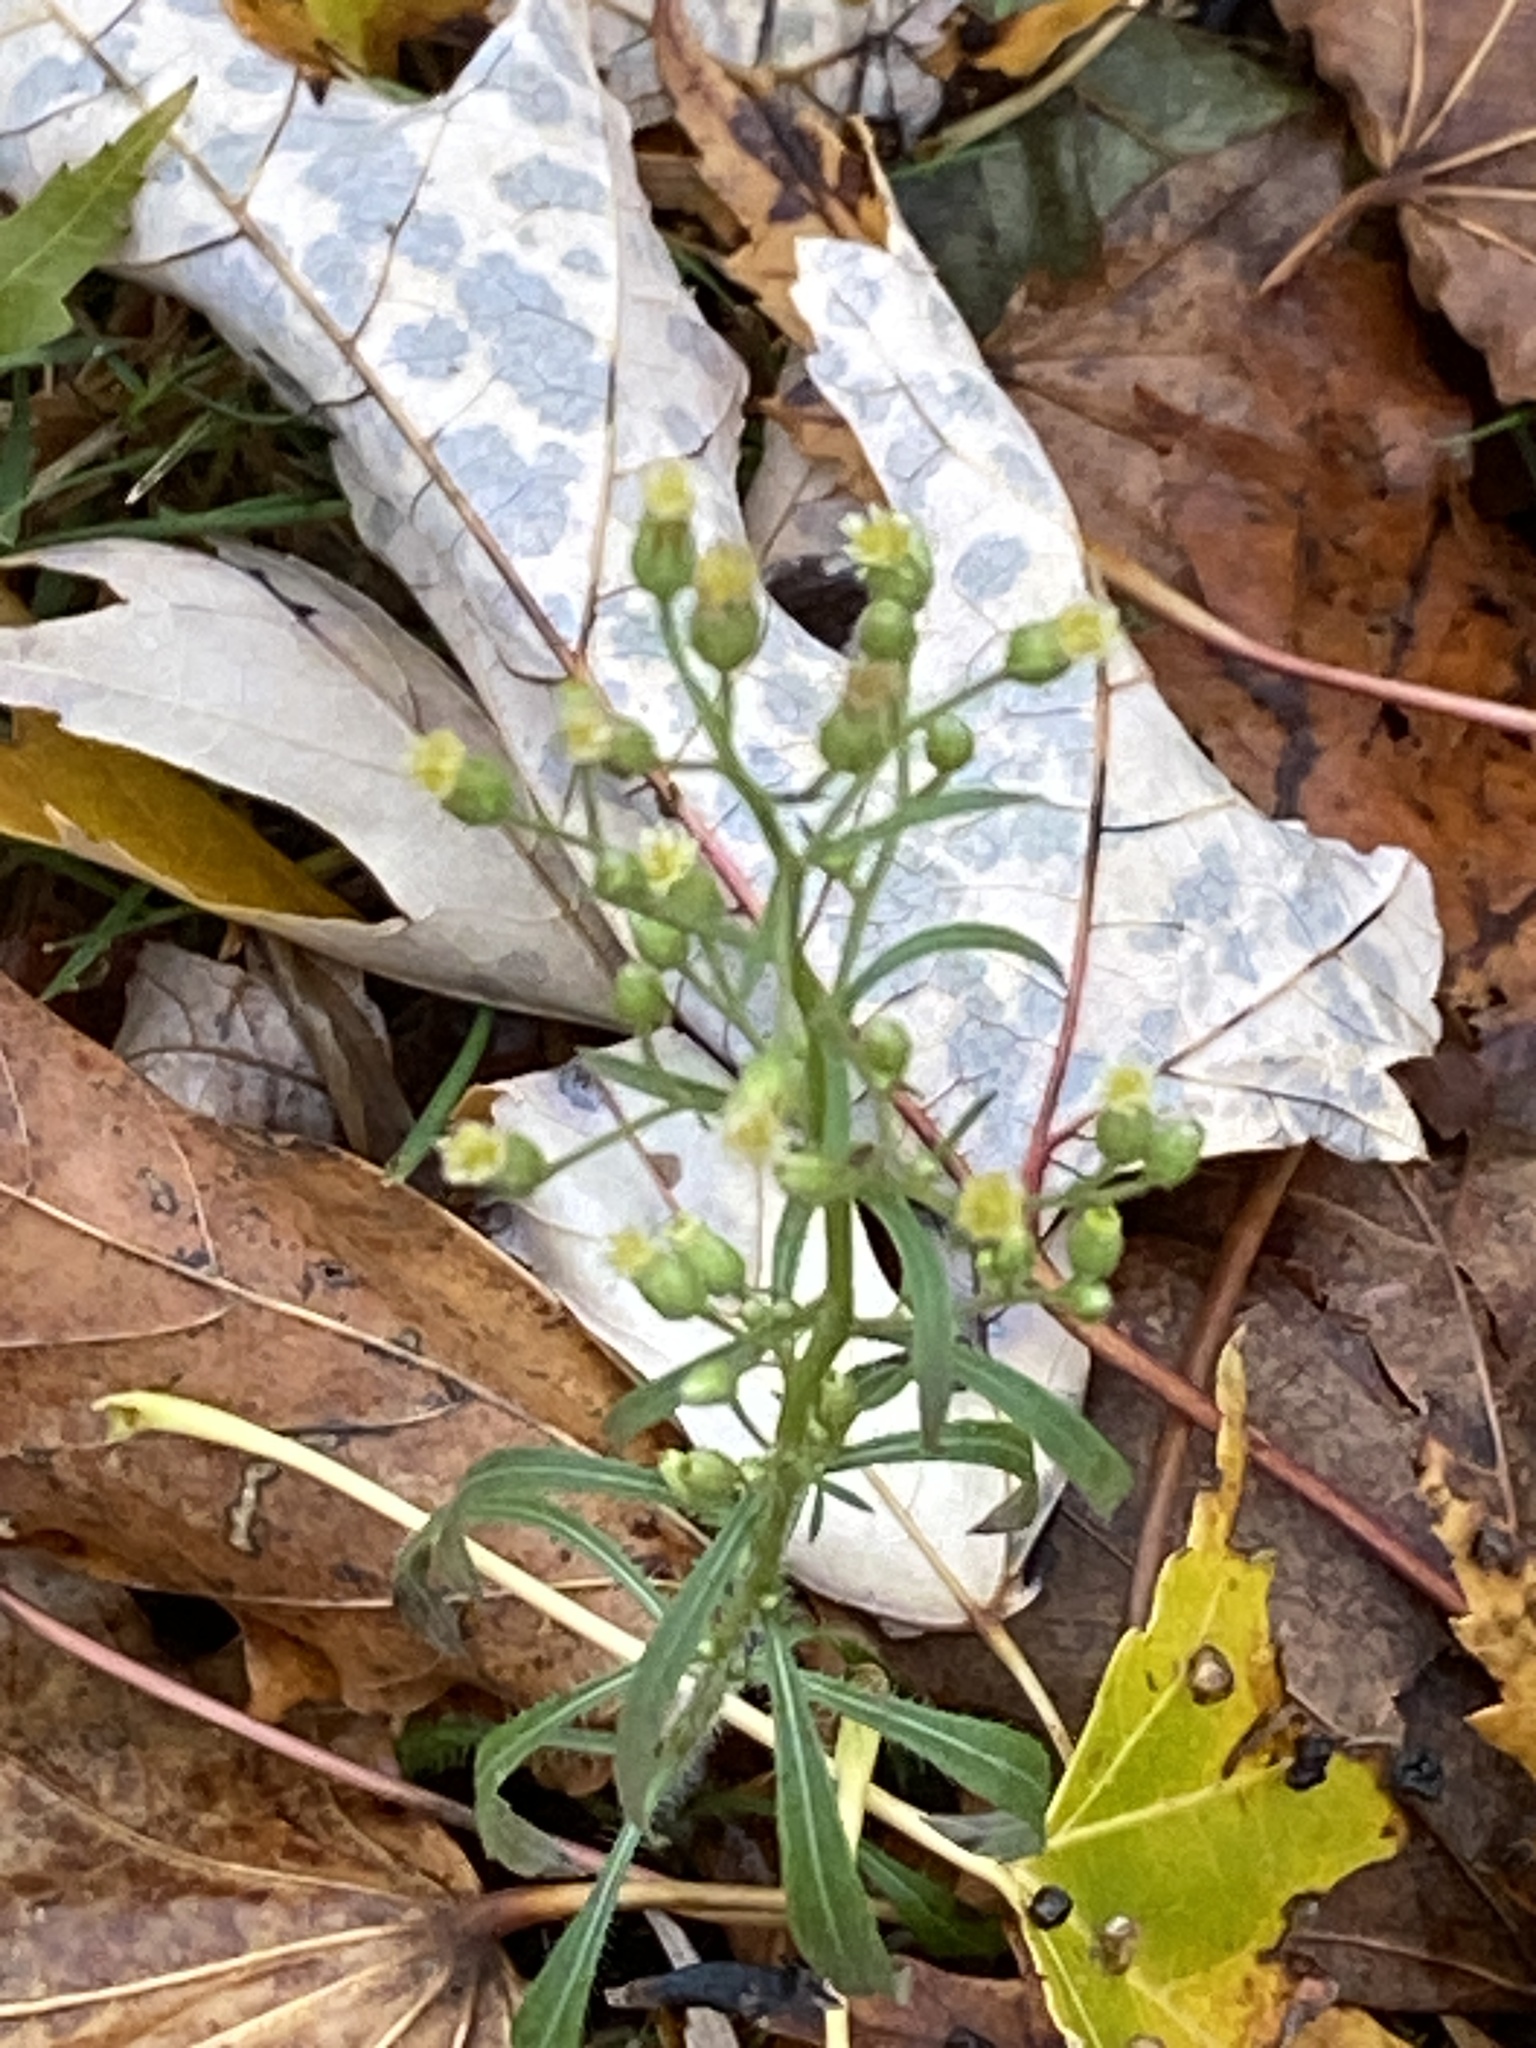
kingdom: Plantae
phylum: Tracheophyta
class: Magnoliopsida
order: Asterales
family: Asteraceae
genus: Erigeron
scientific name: Erigeron canadensis
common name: Canadian fleabane
